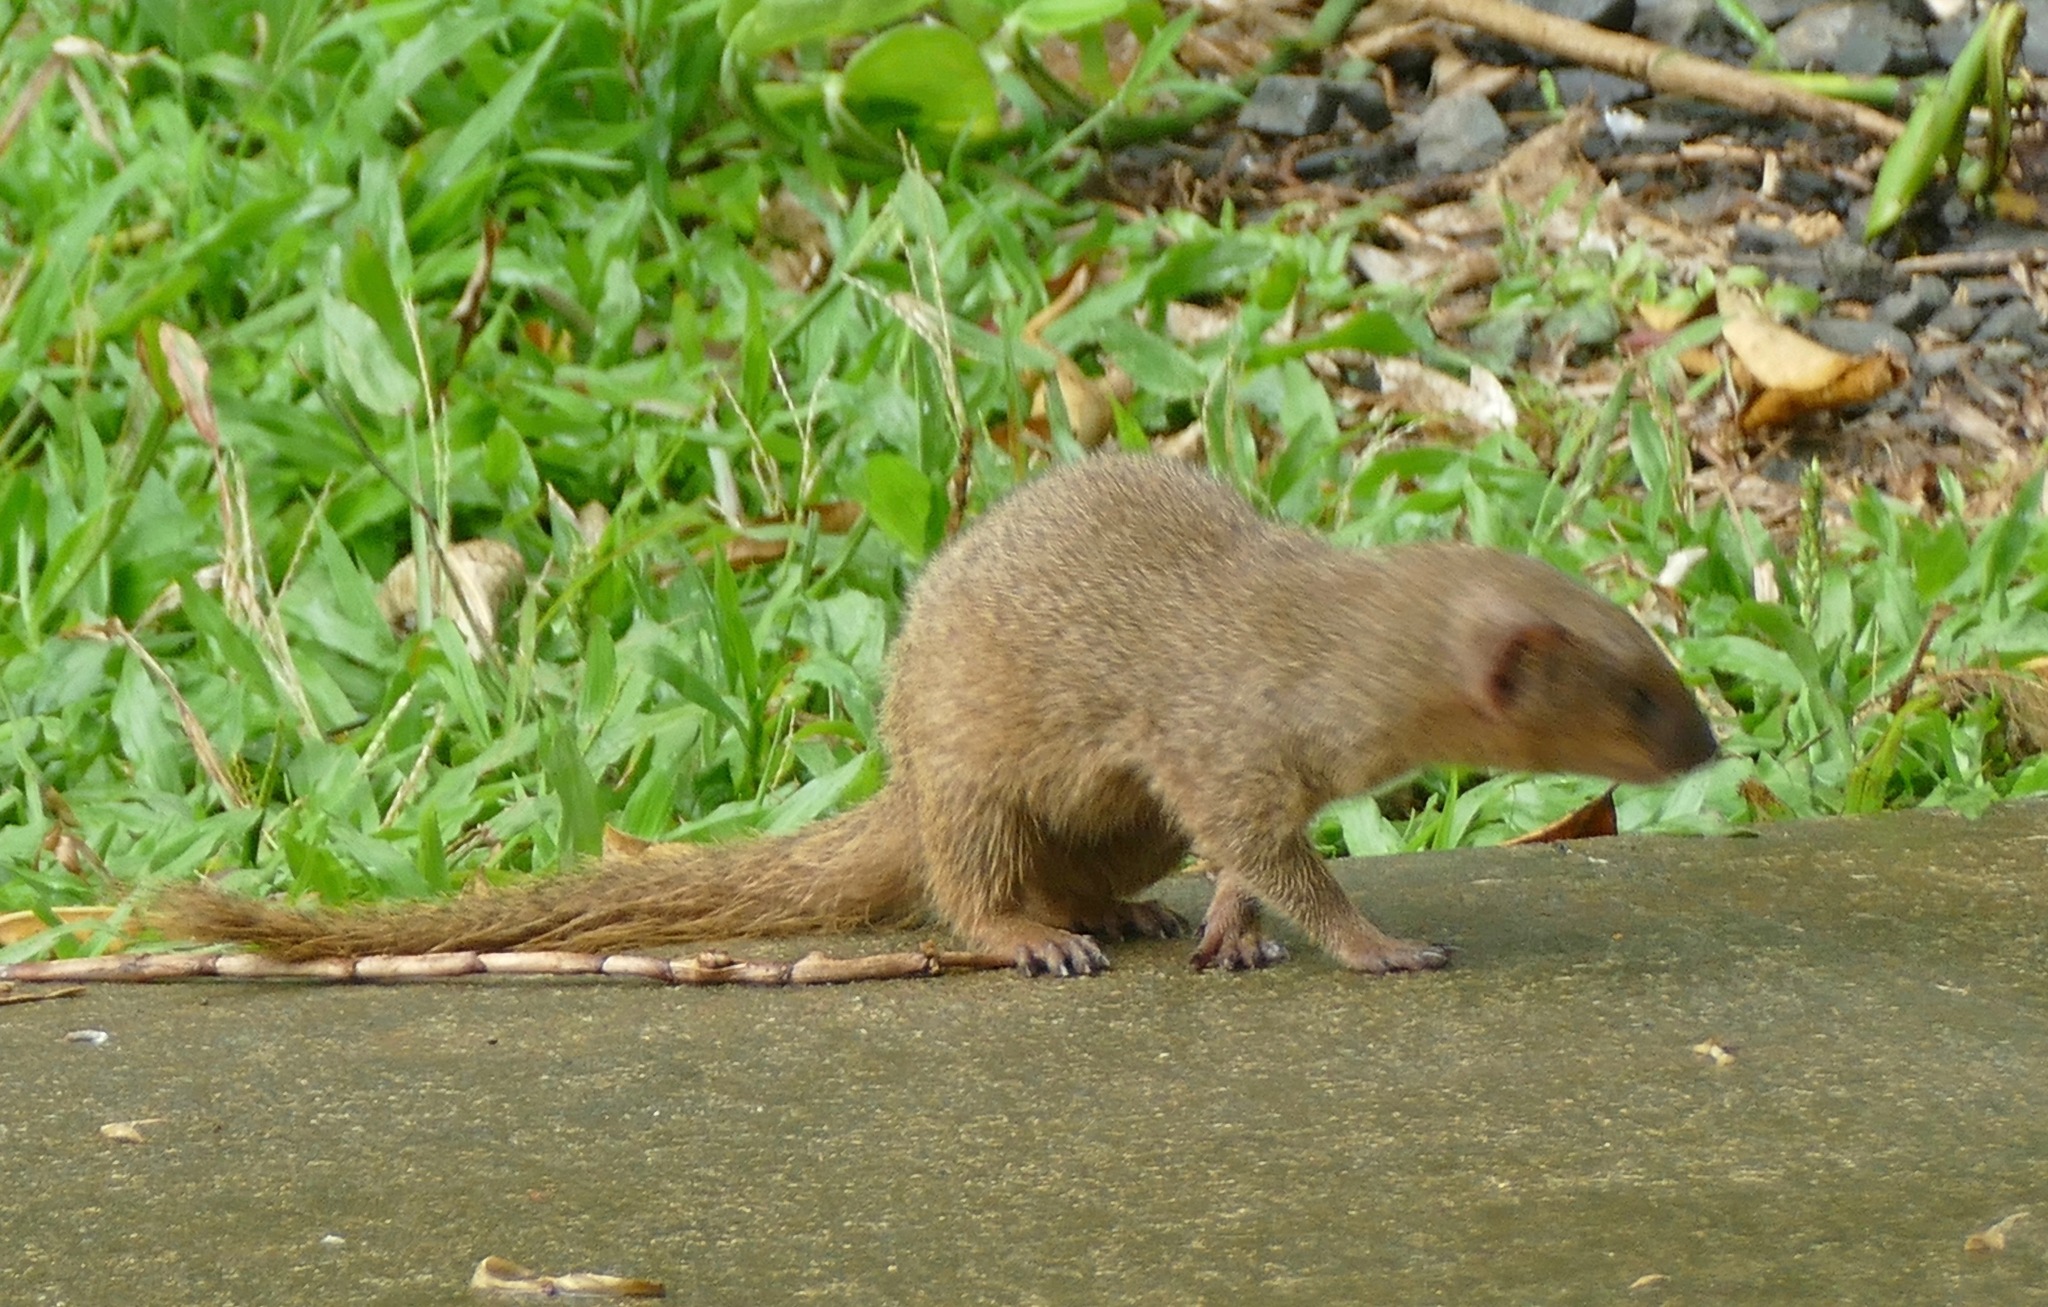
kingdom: Animalia
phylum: Chordata
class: Mammalia
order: Carnivora
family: Herpestidae
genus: Herpestes
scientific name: Herpestes javanicus
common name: Small asian mongoose
